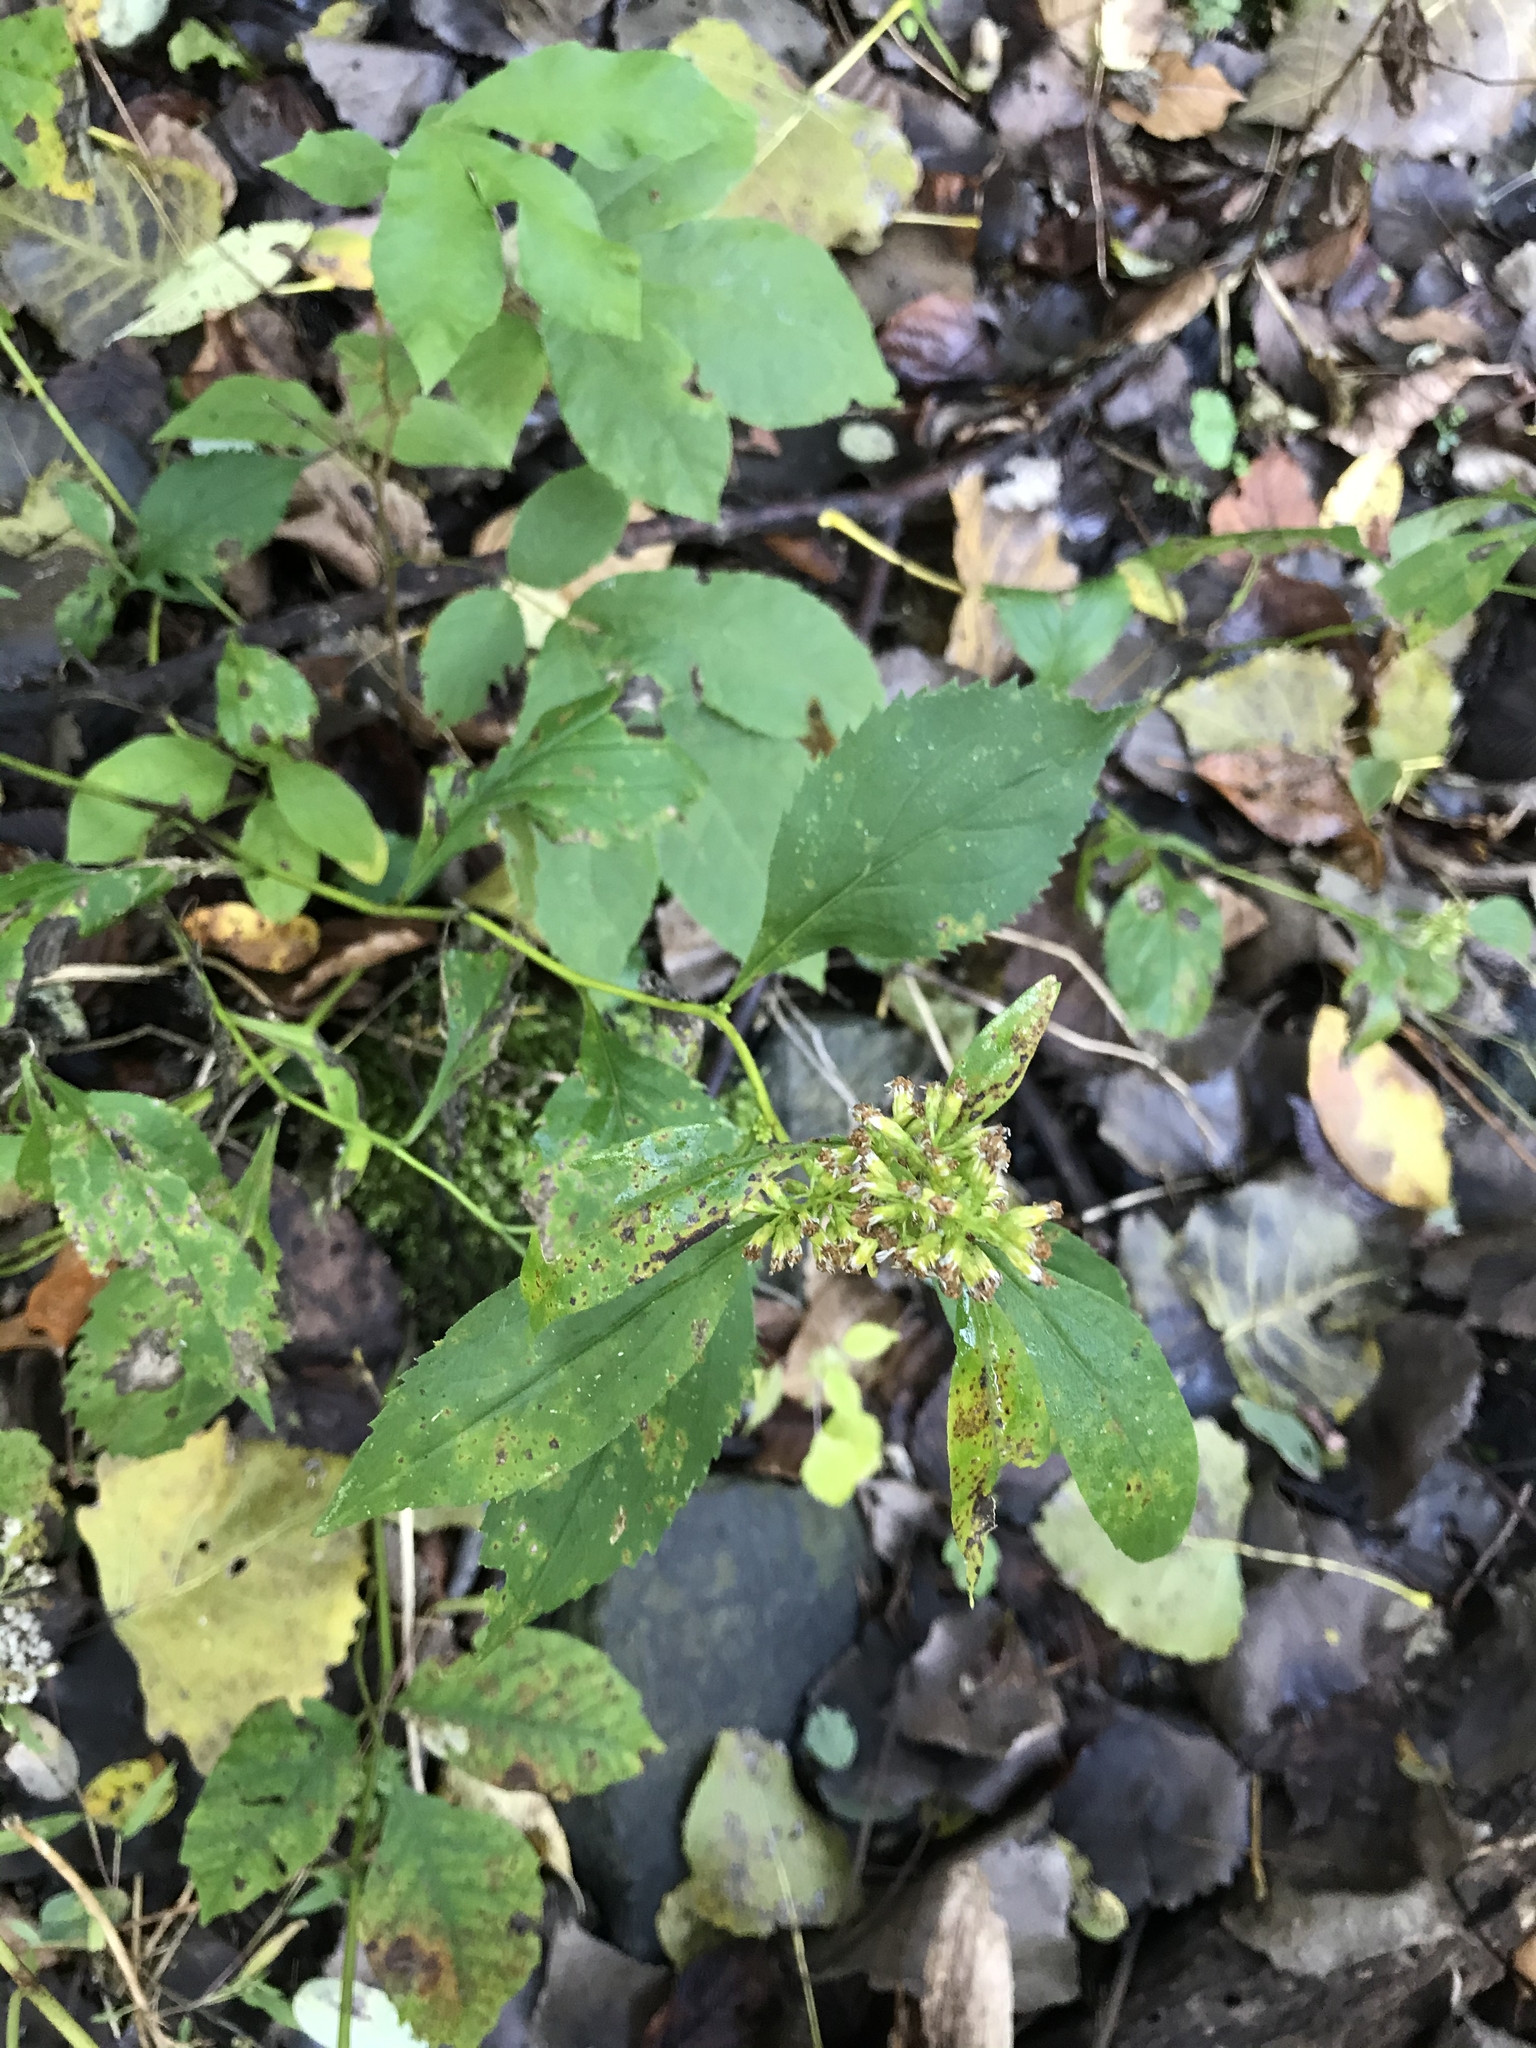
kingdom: Plantae
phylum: Tracheophyta
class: Magnoliopsida
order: Asterales
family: Asteraceae
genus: Solidago
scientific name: Solidago flexicaulis
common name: Zig-zag goldenrod
